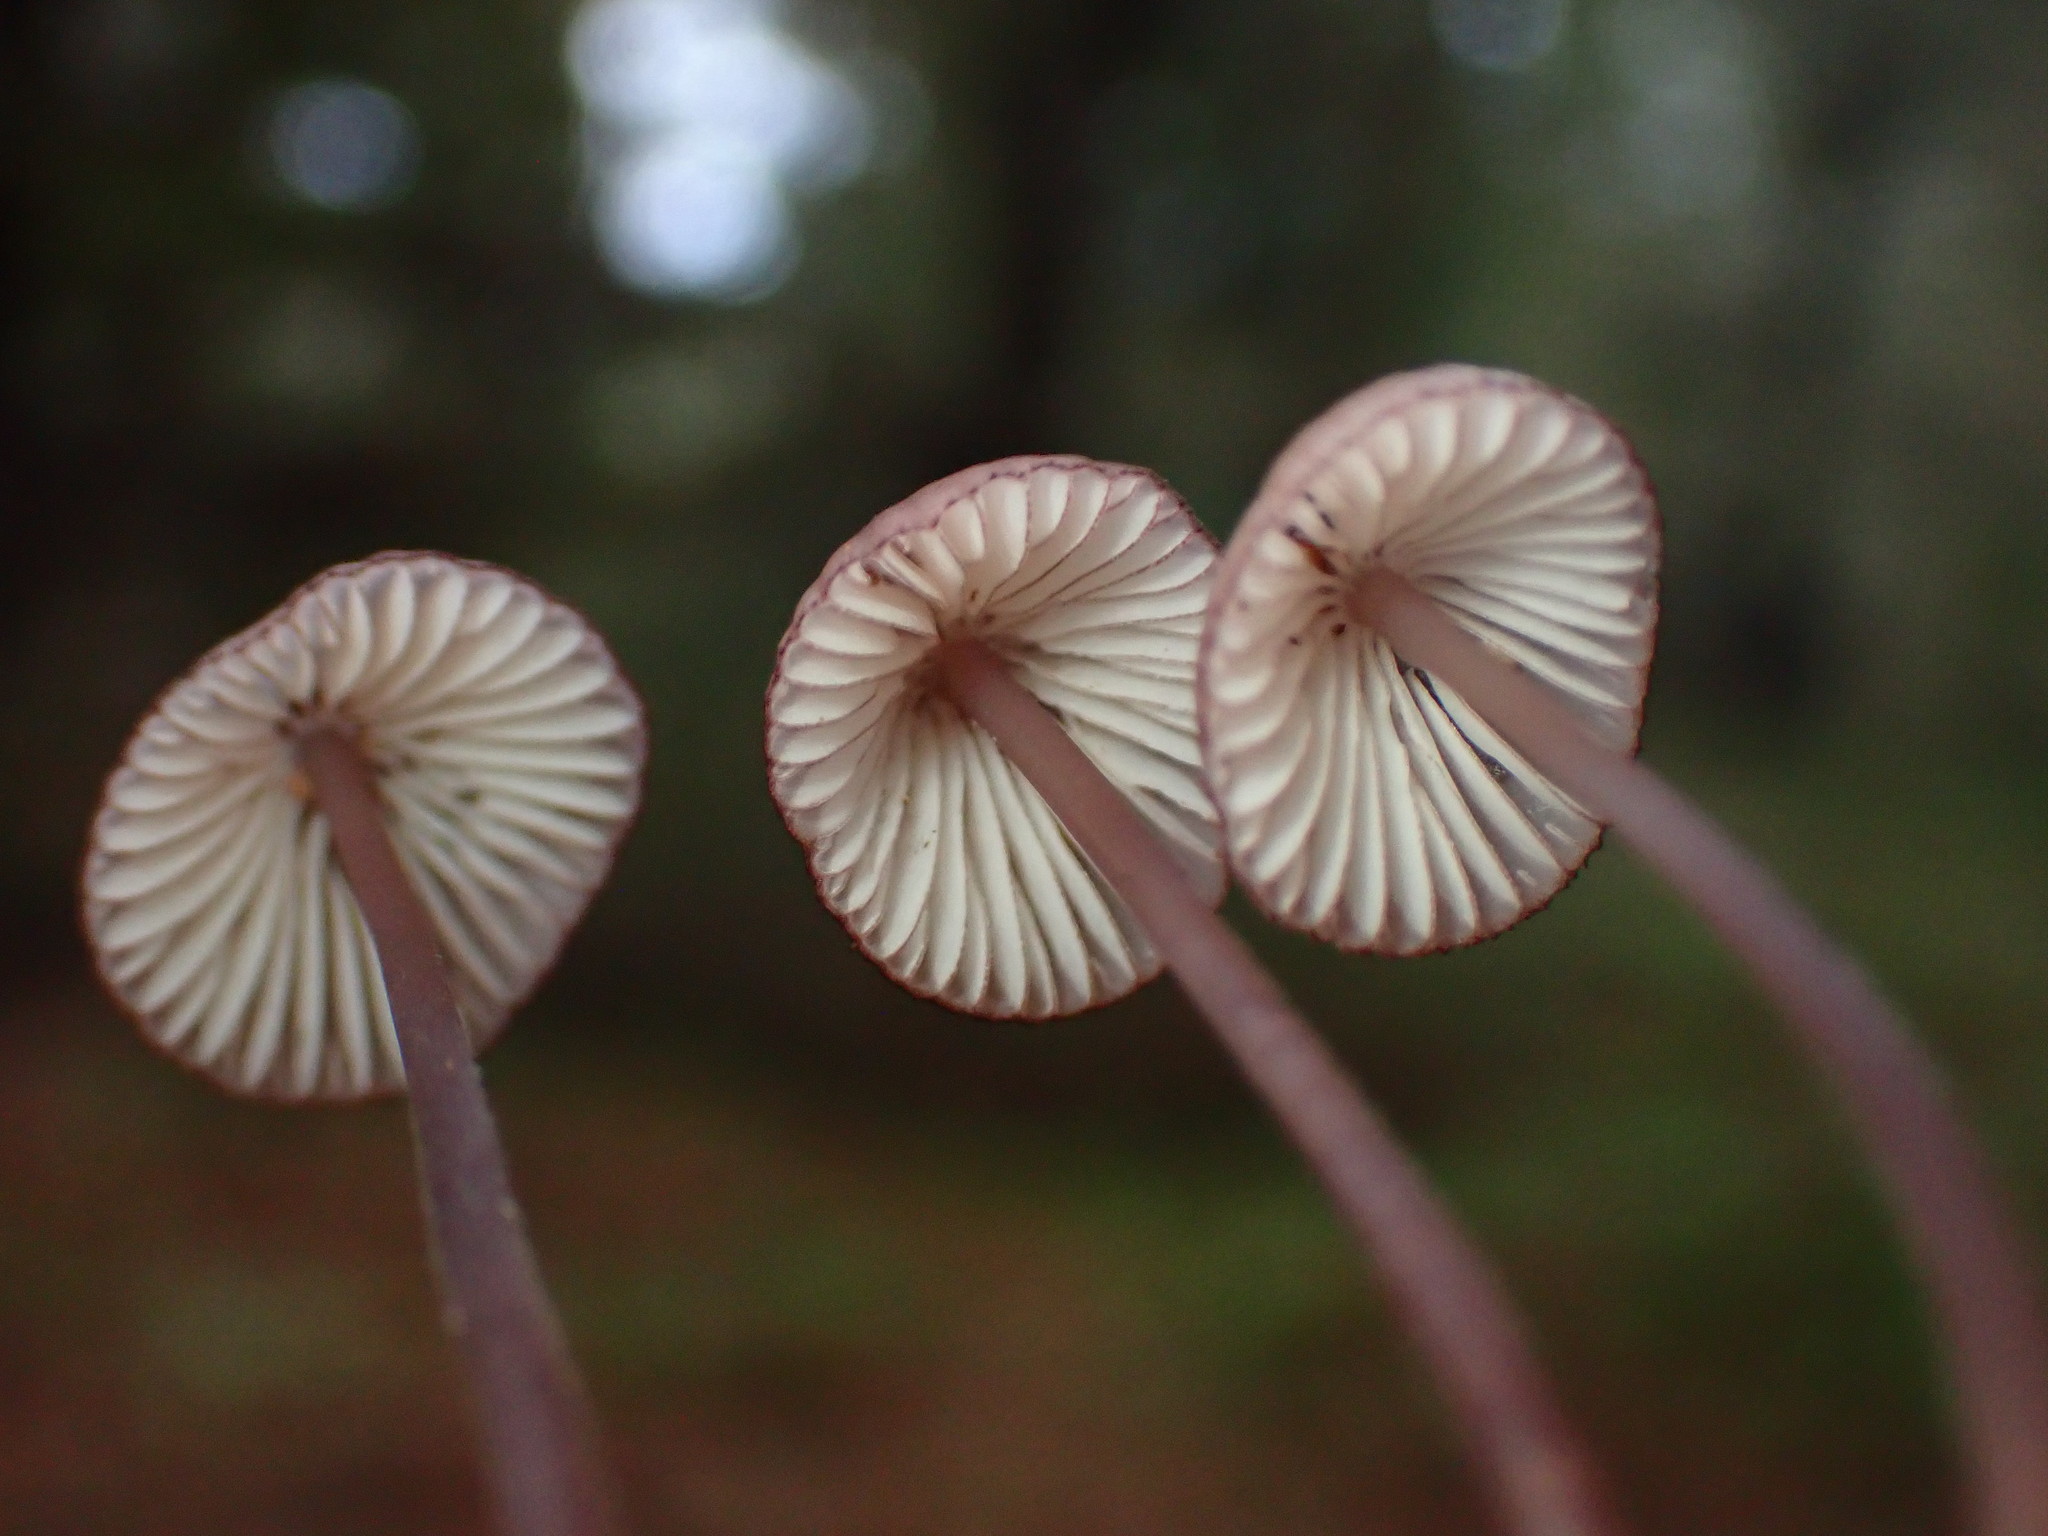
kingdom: Fungi
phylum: Basidiomycota
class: Agaricomycetes
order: Agaricales
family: Mycenaceae
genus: Mycena
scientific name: Mycena purpureofusca
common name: Purple edge bonnet
